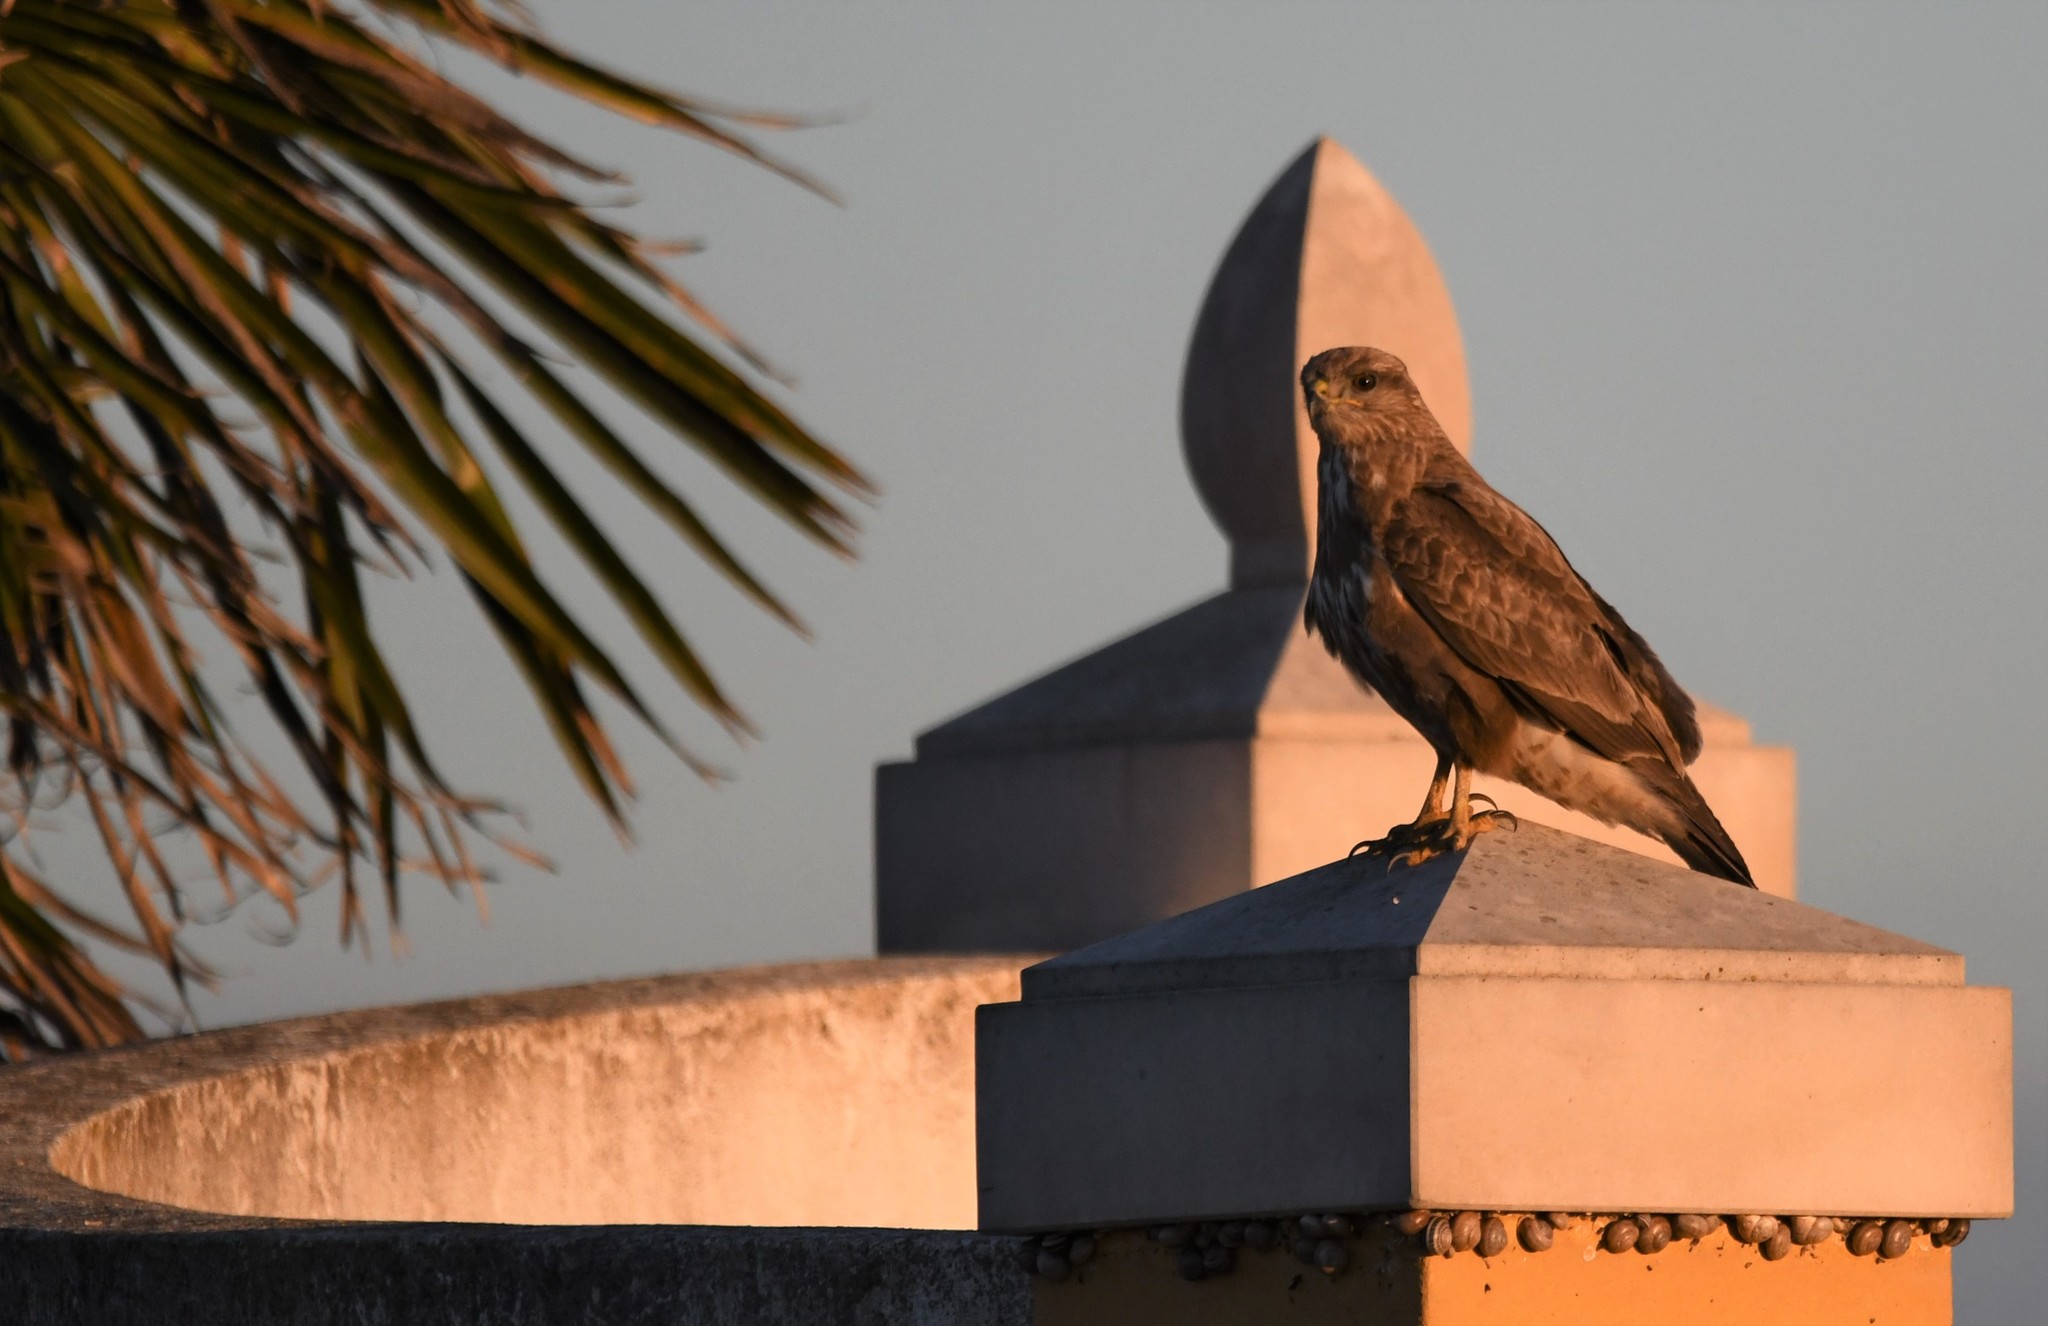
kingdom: Animalia
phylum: Chordata
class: Aves
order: Accipitriformes
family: Accipitridae
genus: Buteo
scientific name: Buteo buteo
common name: Common buzzard
